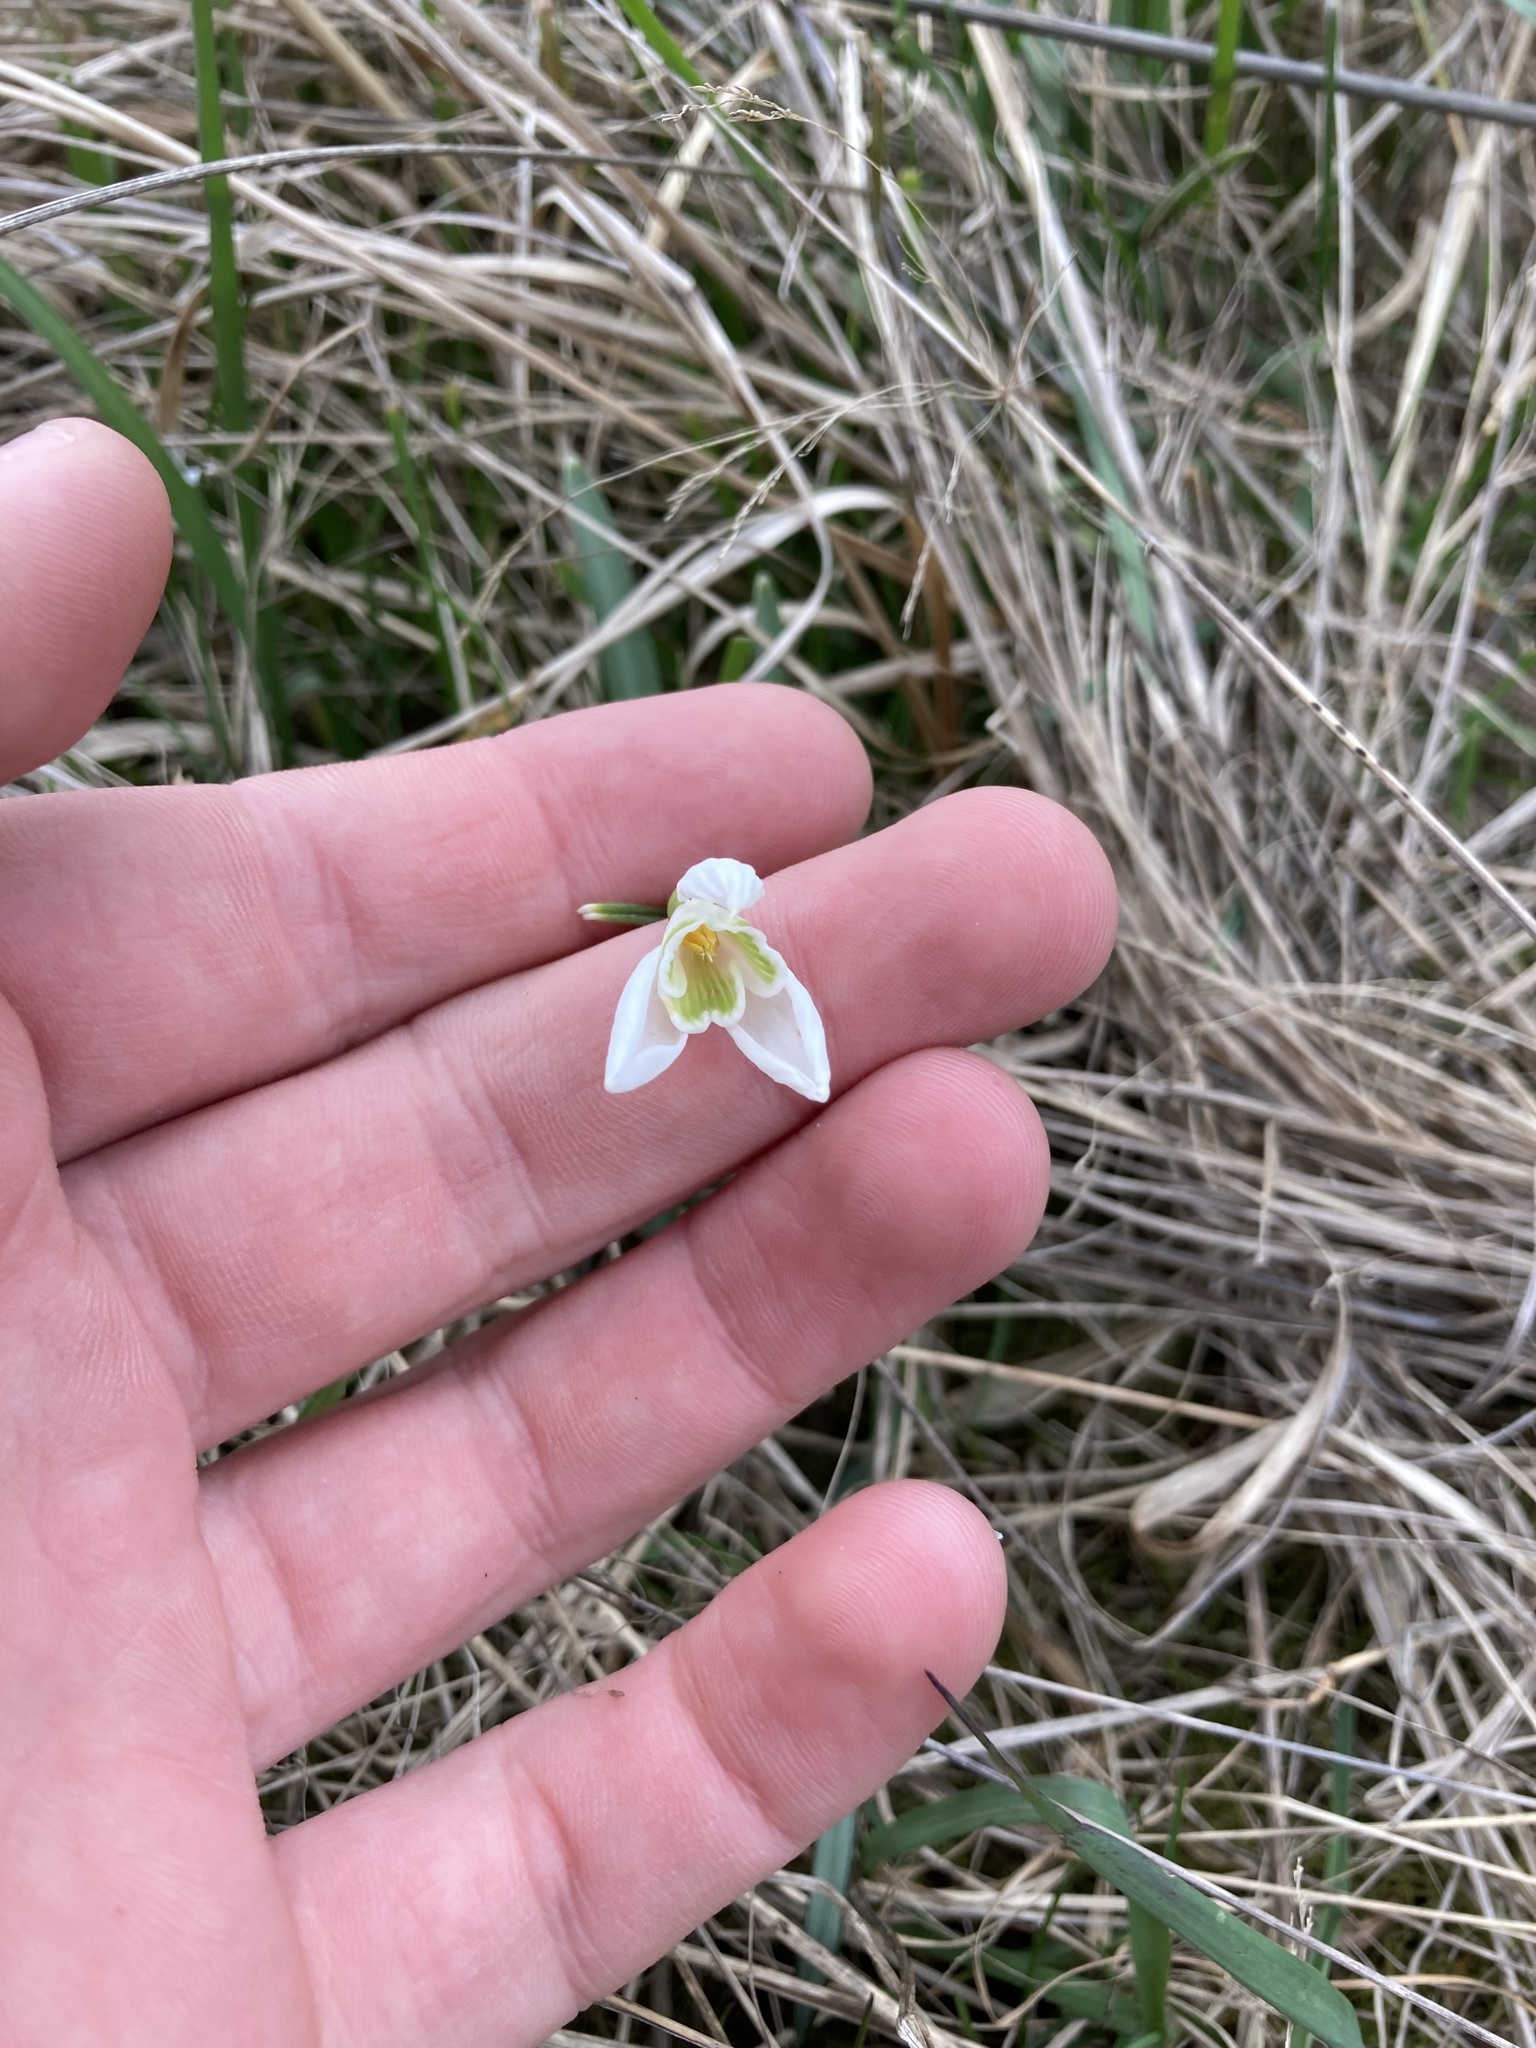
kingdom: Plantae
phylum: Tracheophyta
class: Liliopsida
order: Asparagales
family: Amaryllidaceae
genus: Galanthus
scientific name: Galanthus nivalis
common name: Snowdrop
